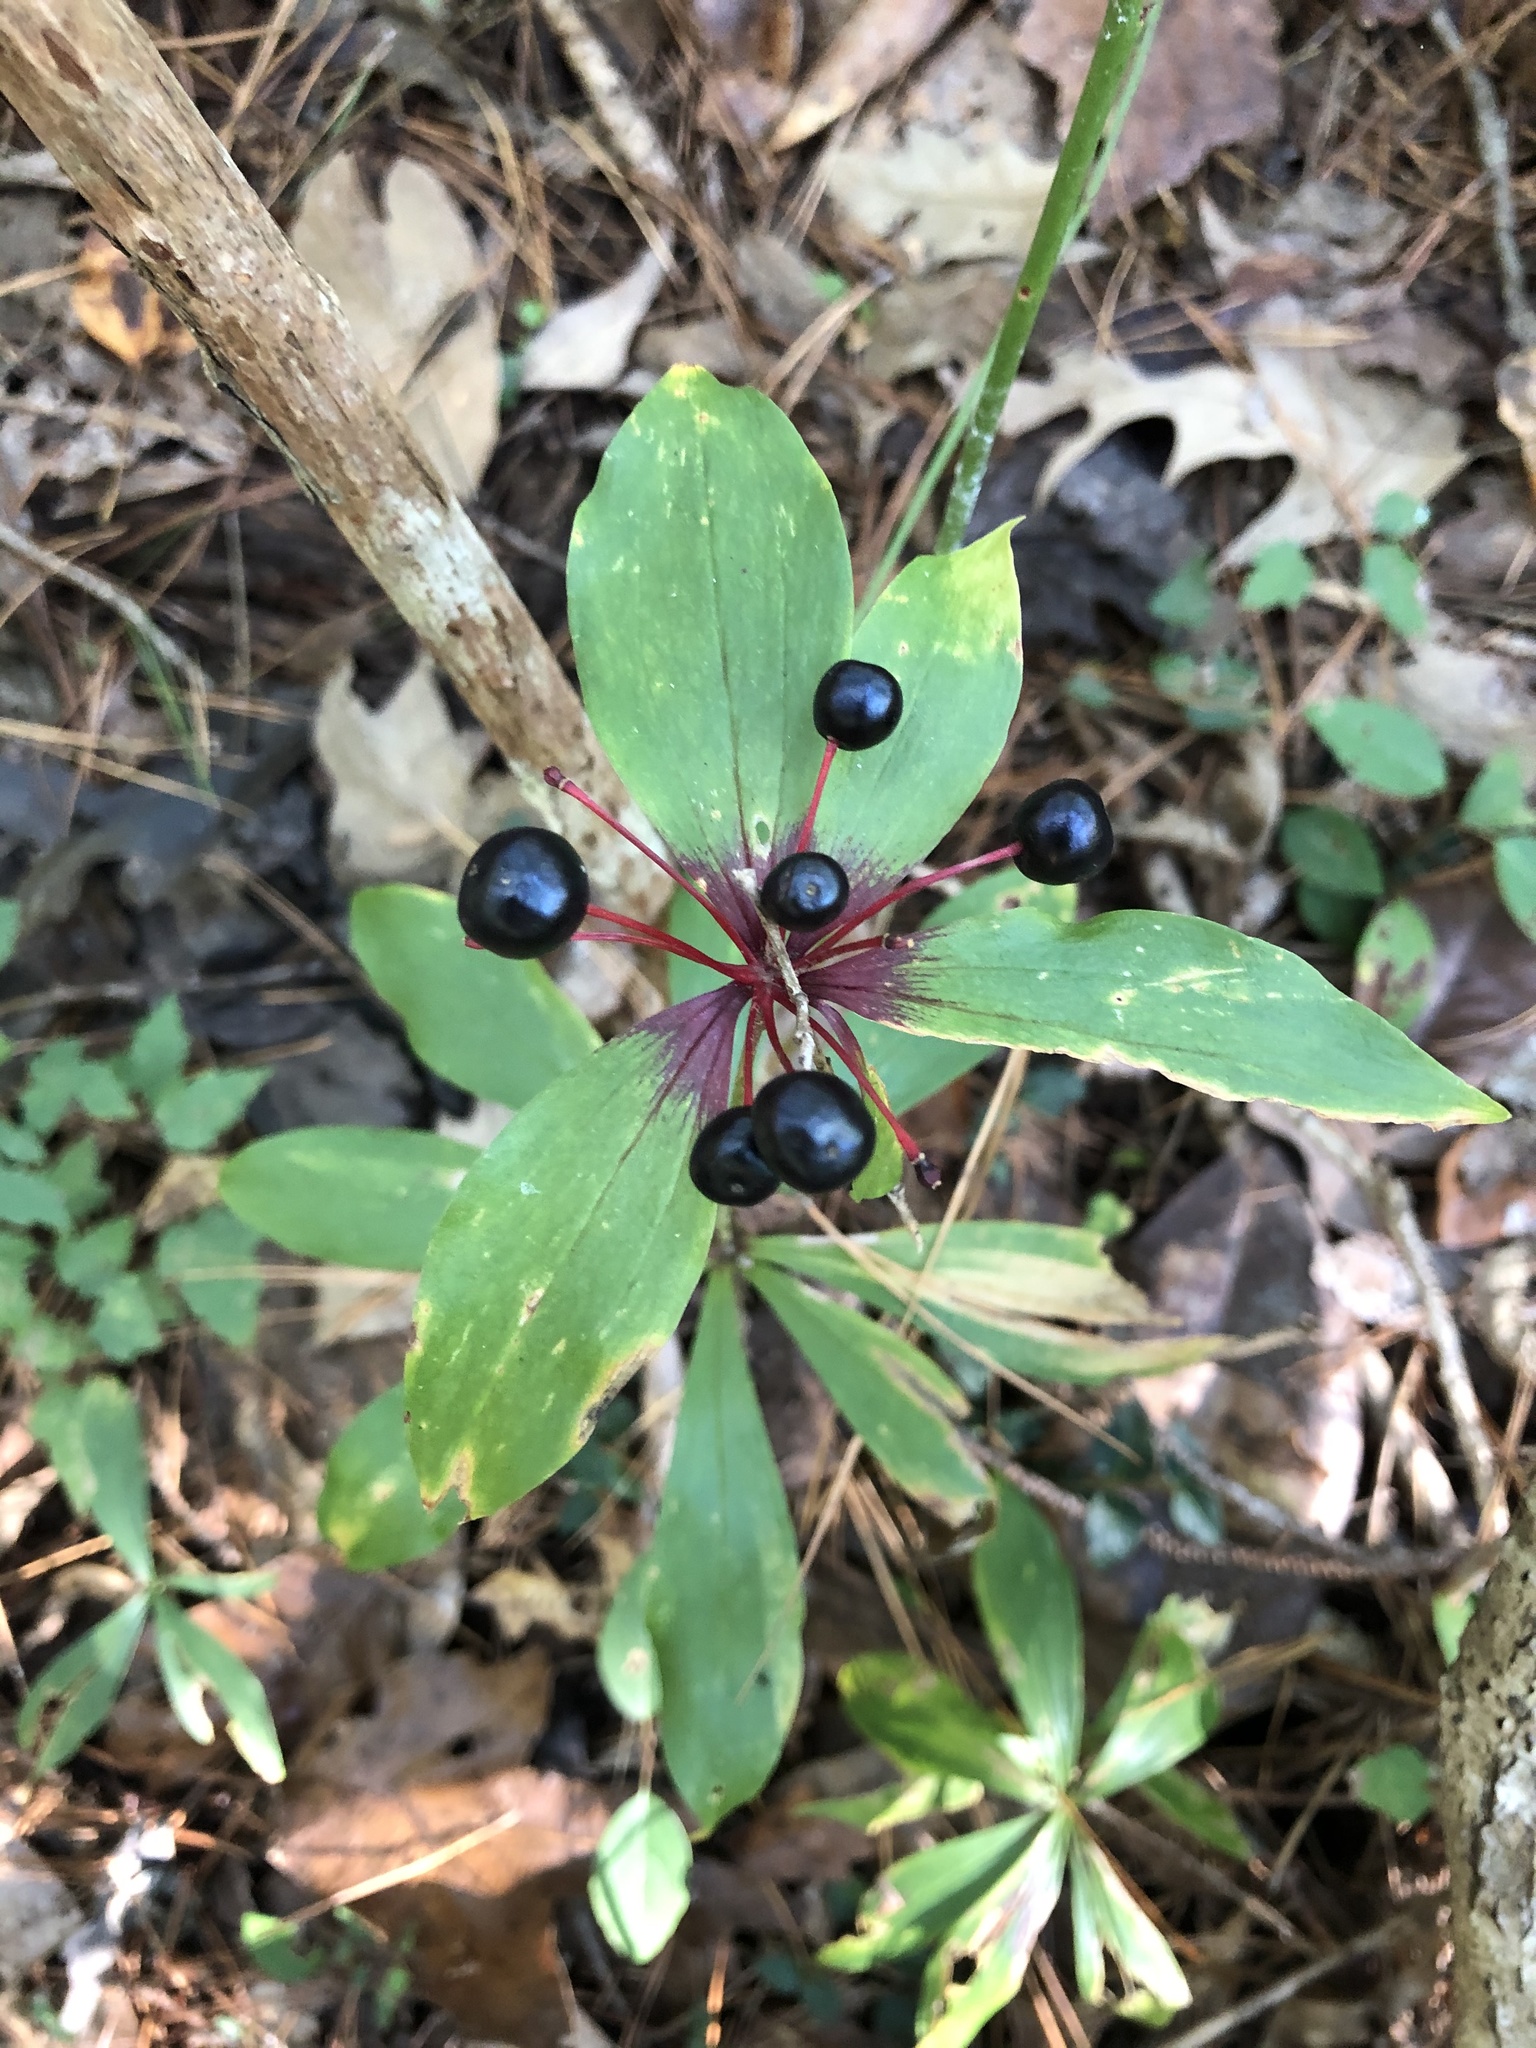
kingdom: Plantae
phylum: Tracheophyta
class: Liliopsida
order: Liliales
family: Liliaceae
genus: Medeola
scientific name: Medeola virginiana
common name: Indian cucumber-root
